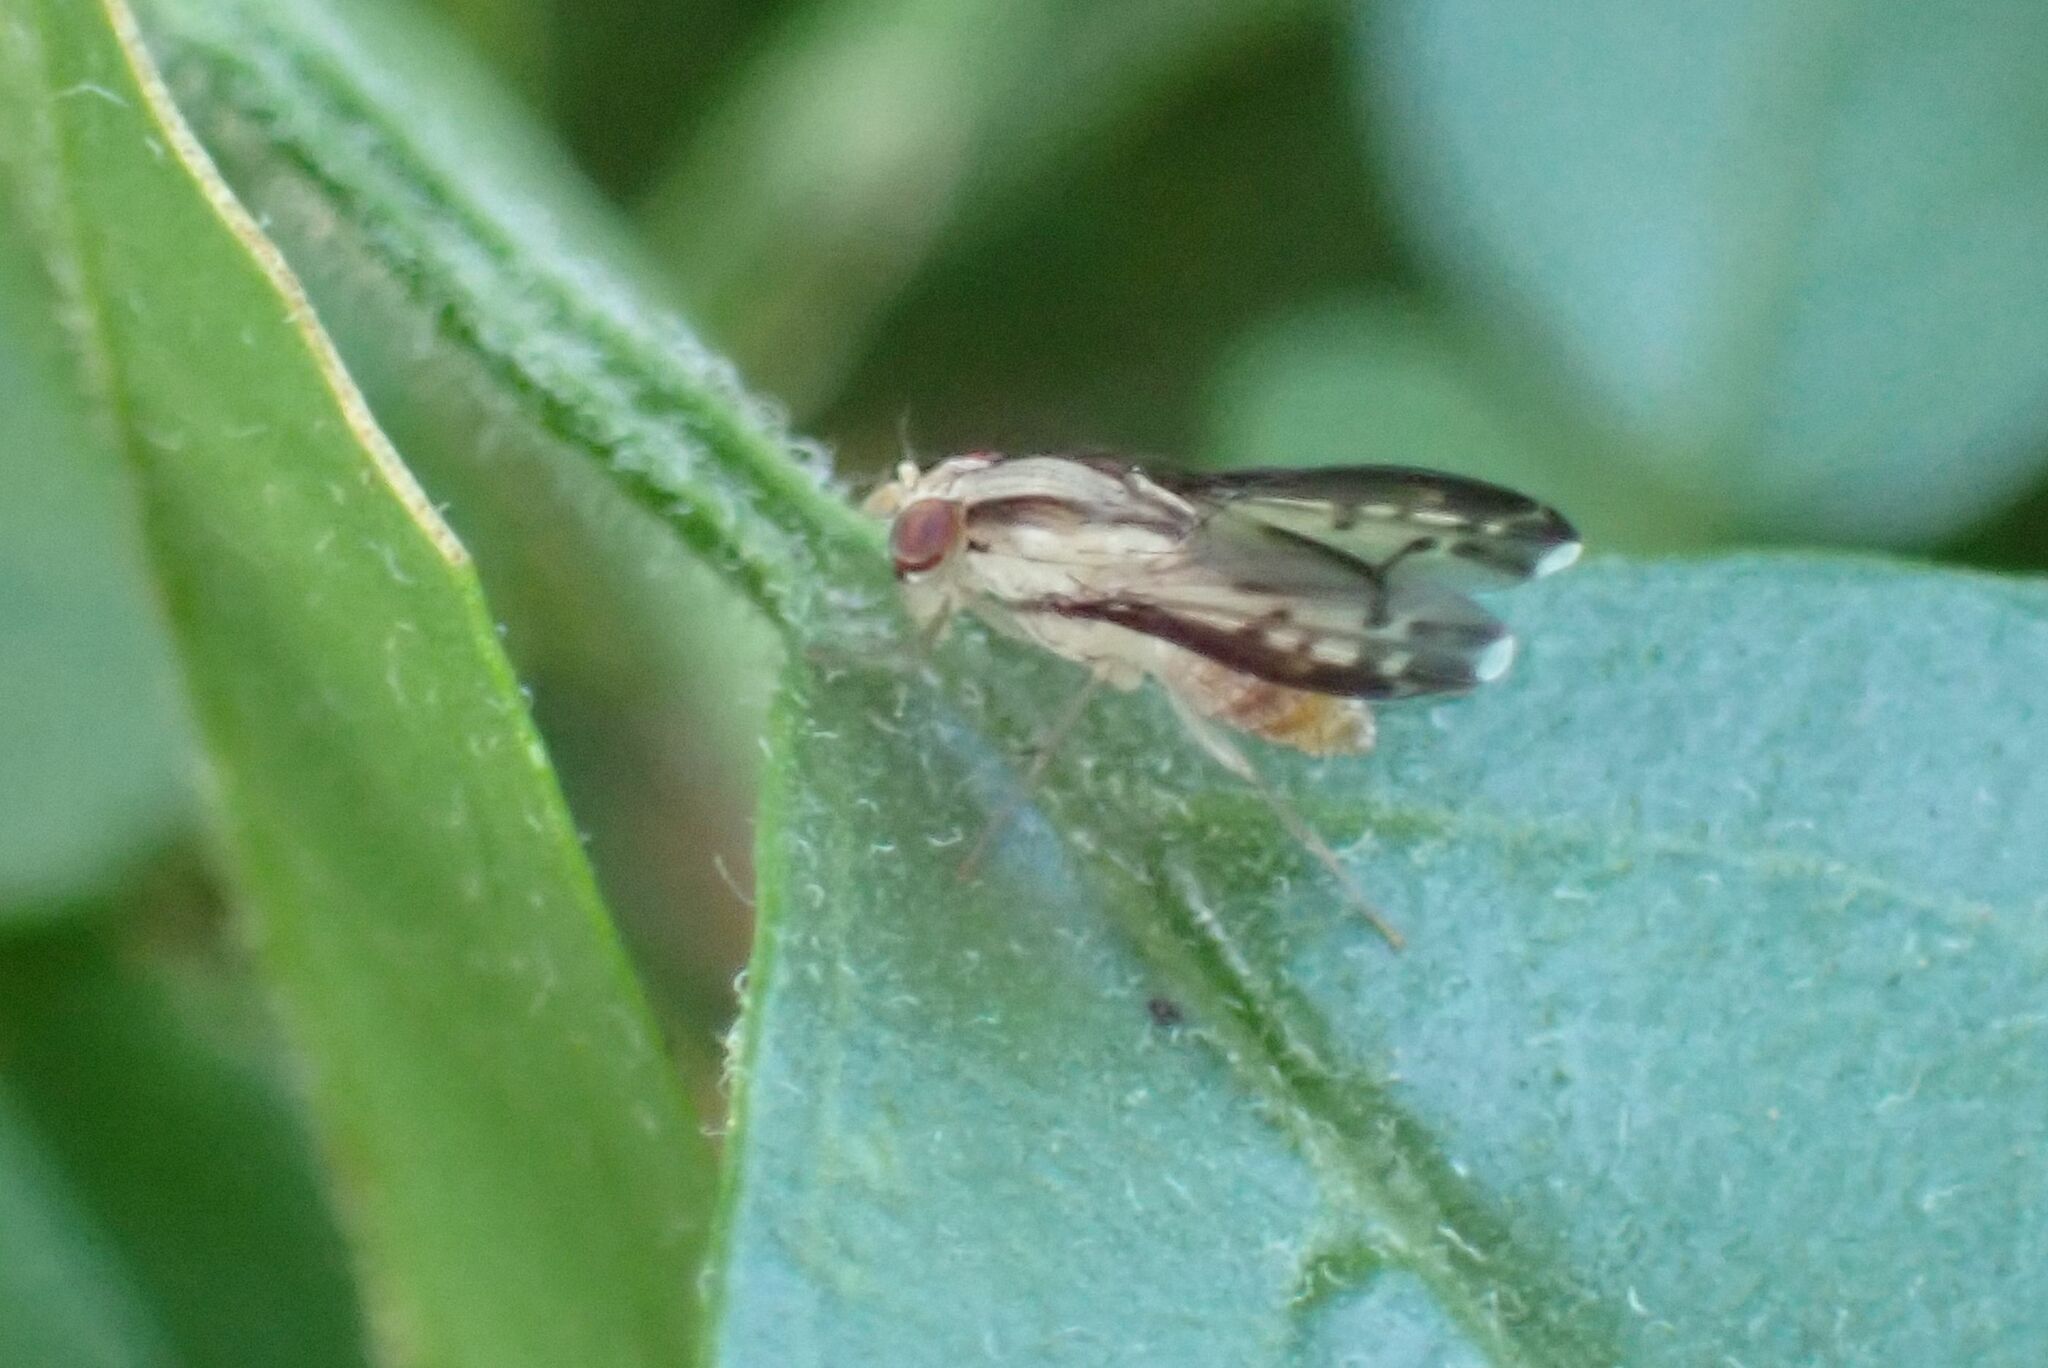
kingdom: Animalia
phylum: Arthropoda
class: Insecta
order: Diptera
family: Lauxaniidae
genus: Homoneura
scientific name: Homoneura terminalis
